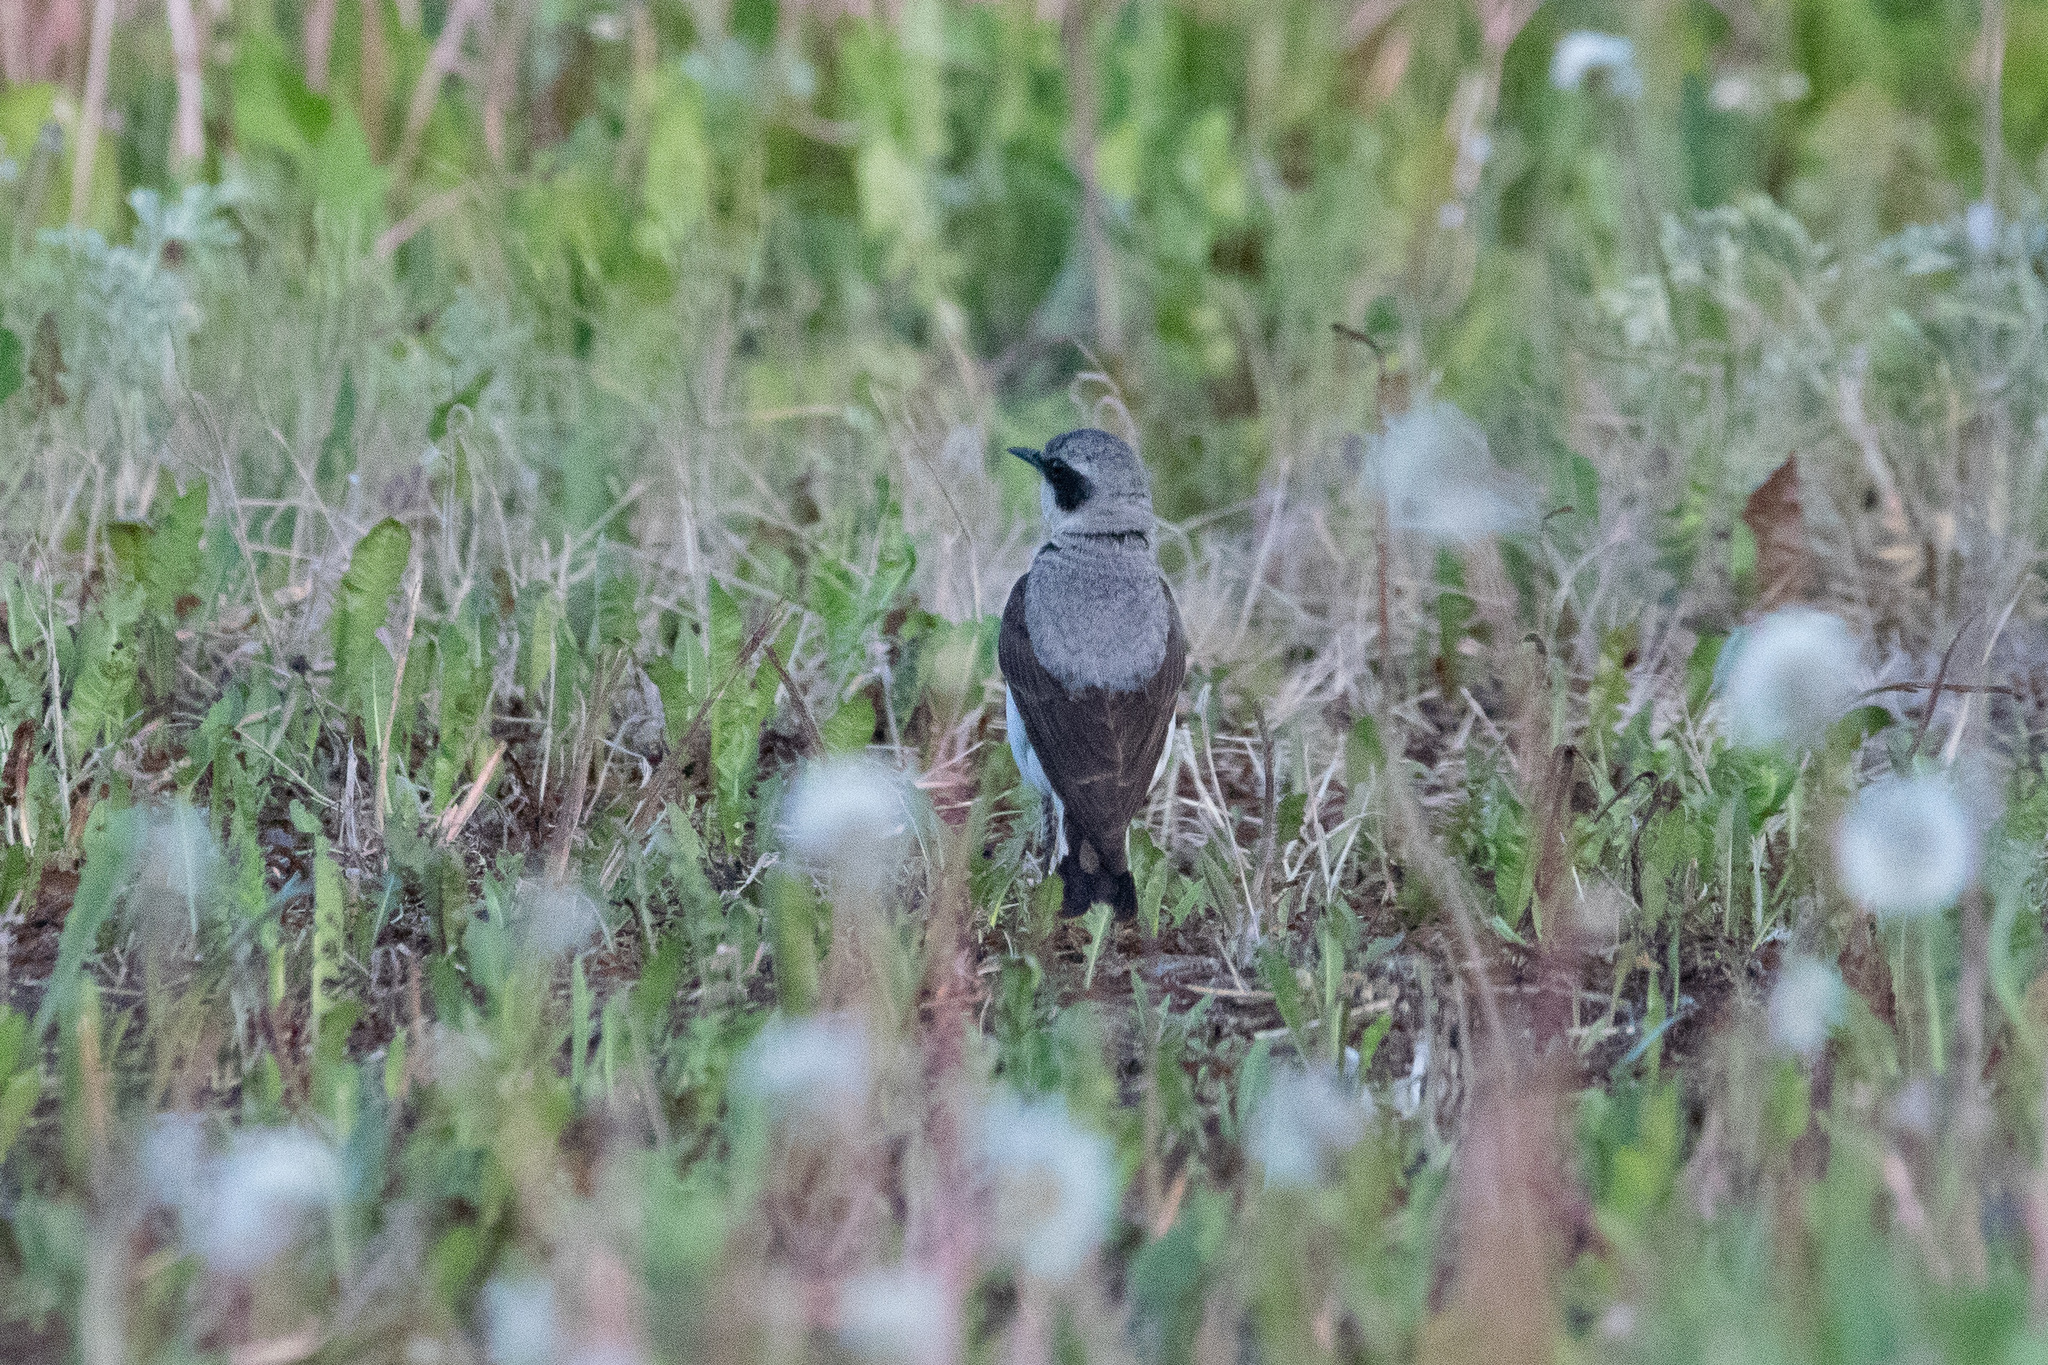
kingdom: Animalia
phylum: Chordata
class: Aves
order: Passeriformes
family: Muscicapidae
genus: Oenanthe
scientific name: Oenanthe oenanthe
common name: Northern wheatear
